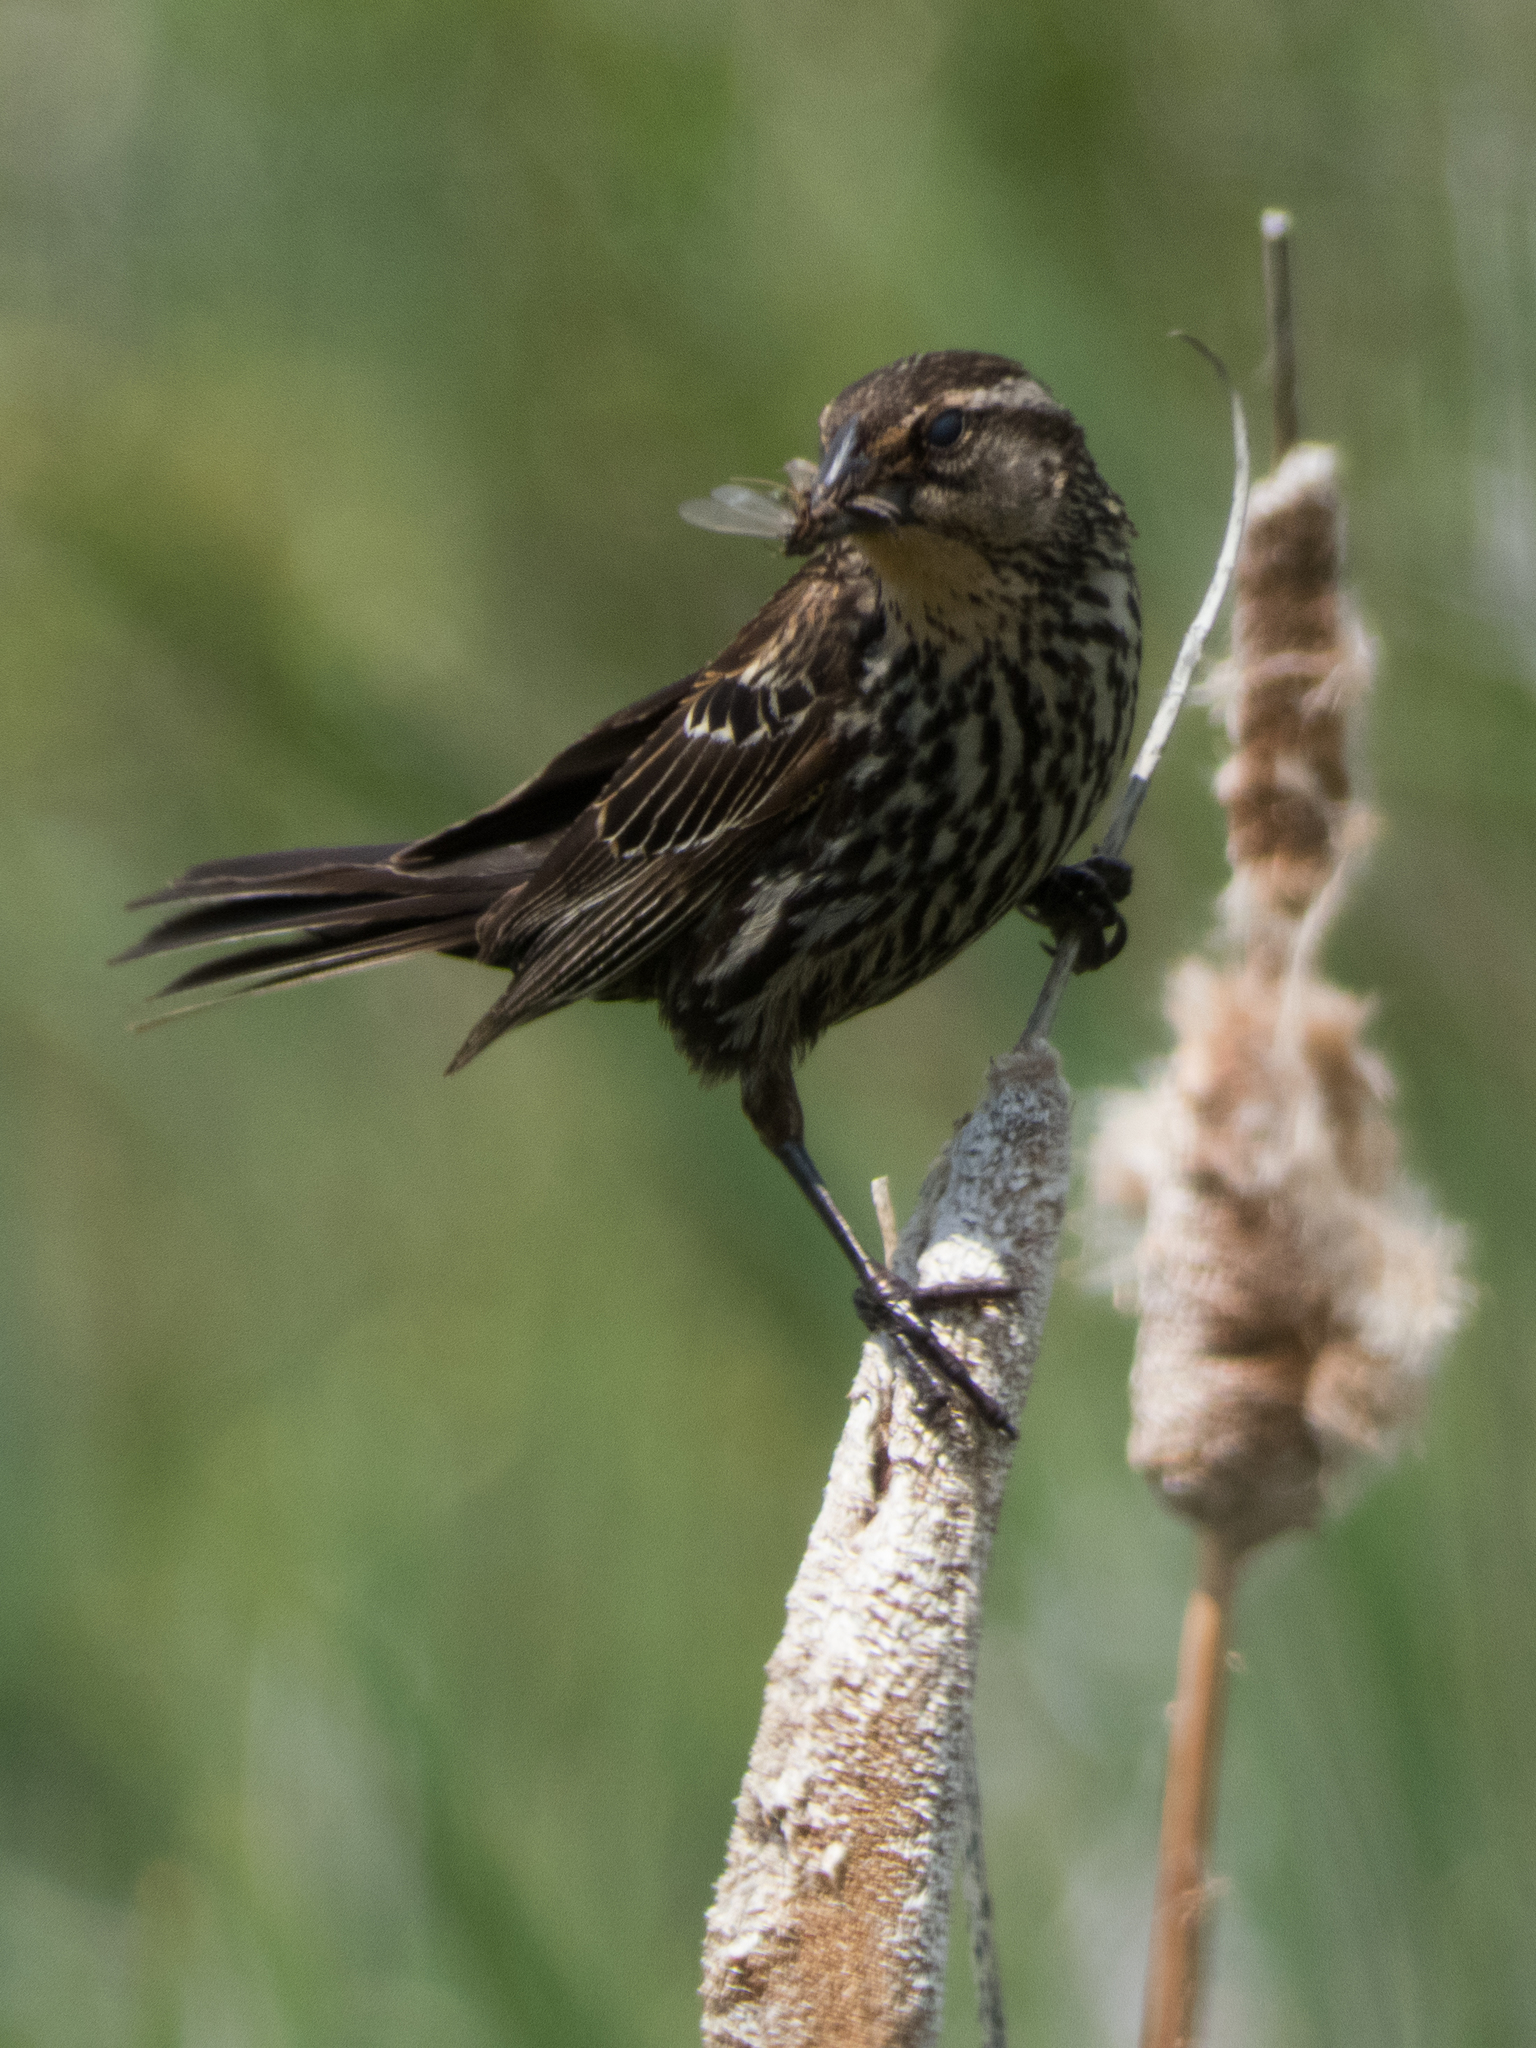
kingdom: Animalia
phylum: Chordata
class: Aves
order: Passeriformes
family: Icteridae
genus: Agelaius
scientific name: Agelaius phoeniceus
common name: Red-winged blackbird
